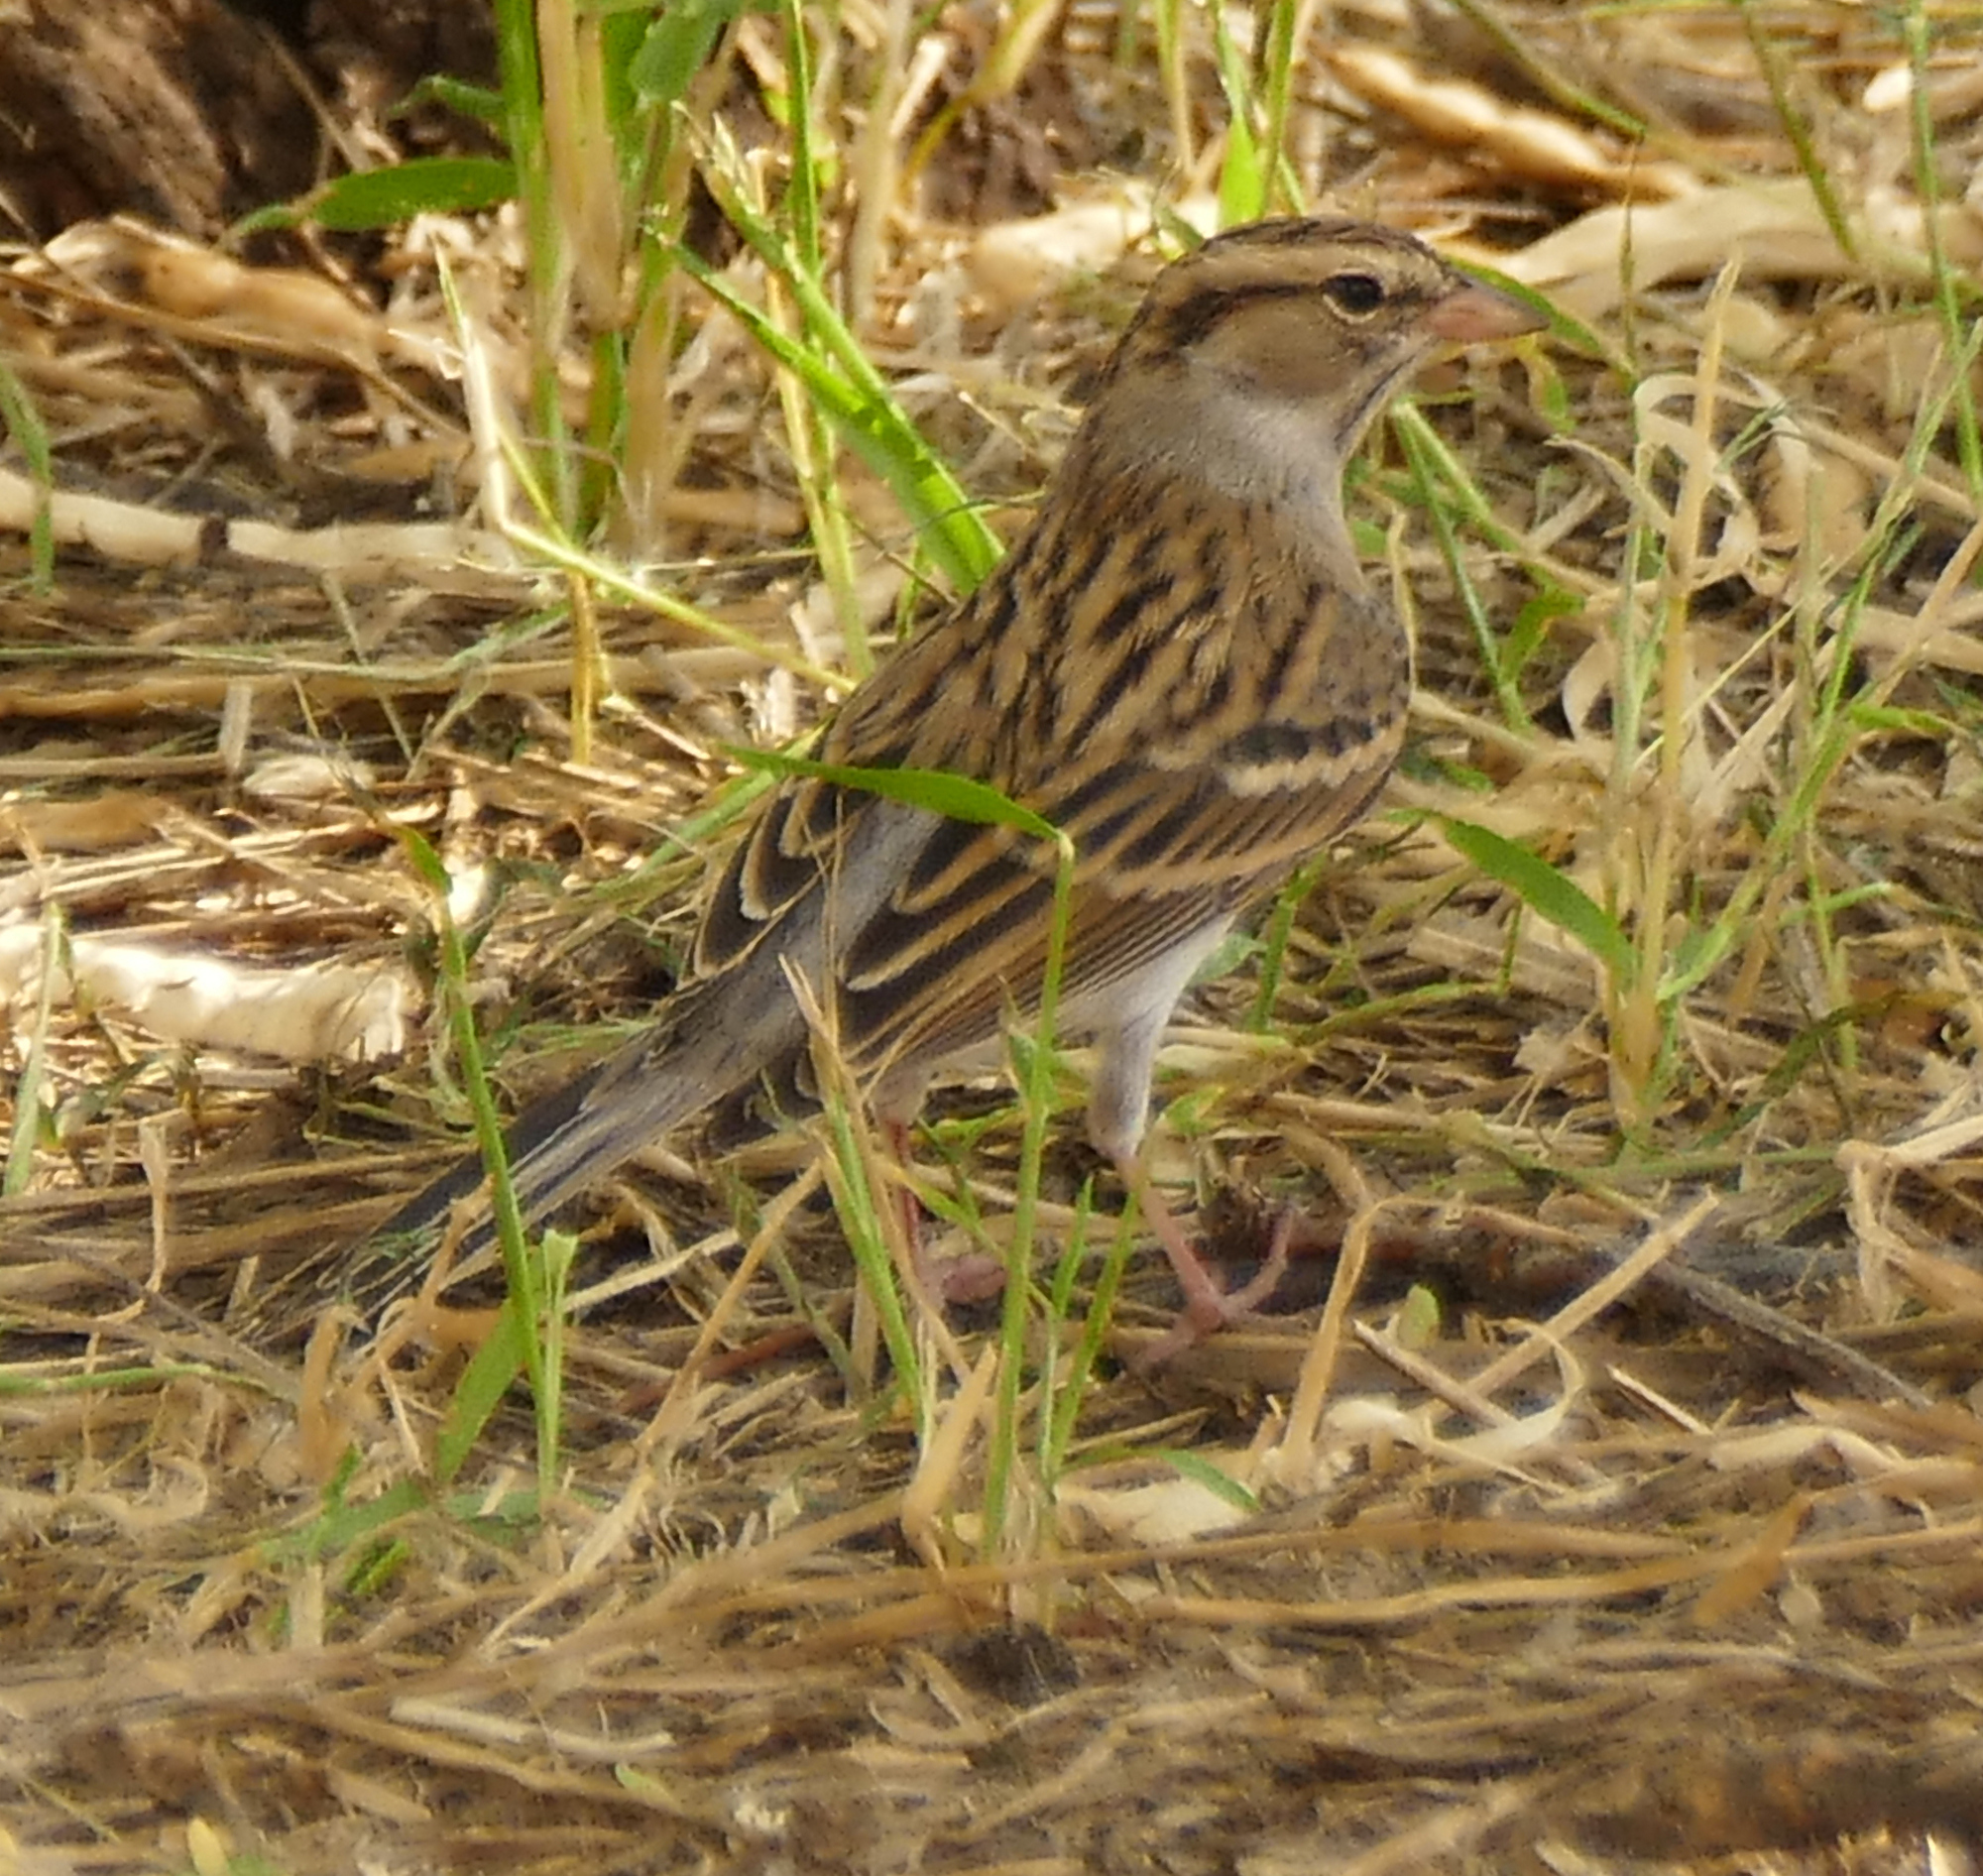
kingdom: Animalia
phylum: Chordata
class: Aves
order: Passeriformes
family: Passerellidae
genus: Spizella
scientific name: Spizella passerina
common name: Chipping sparrow
